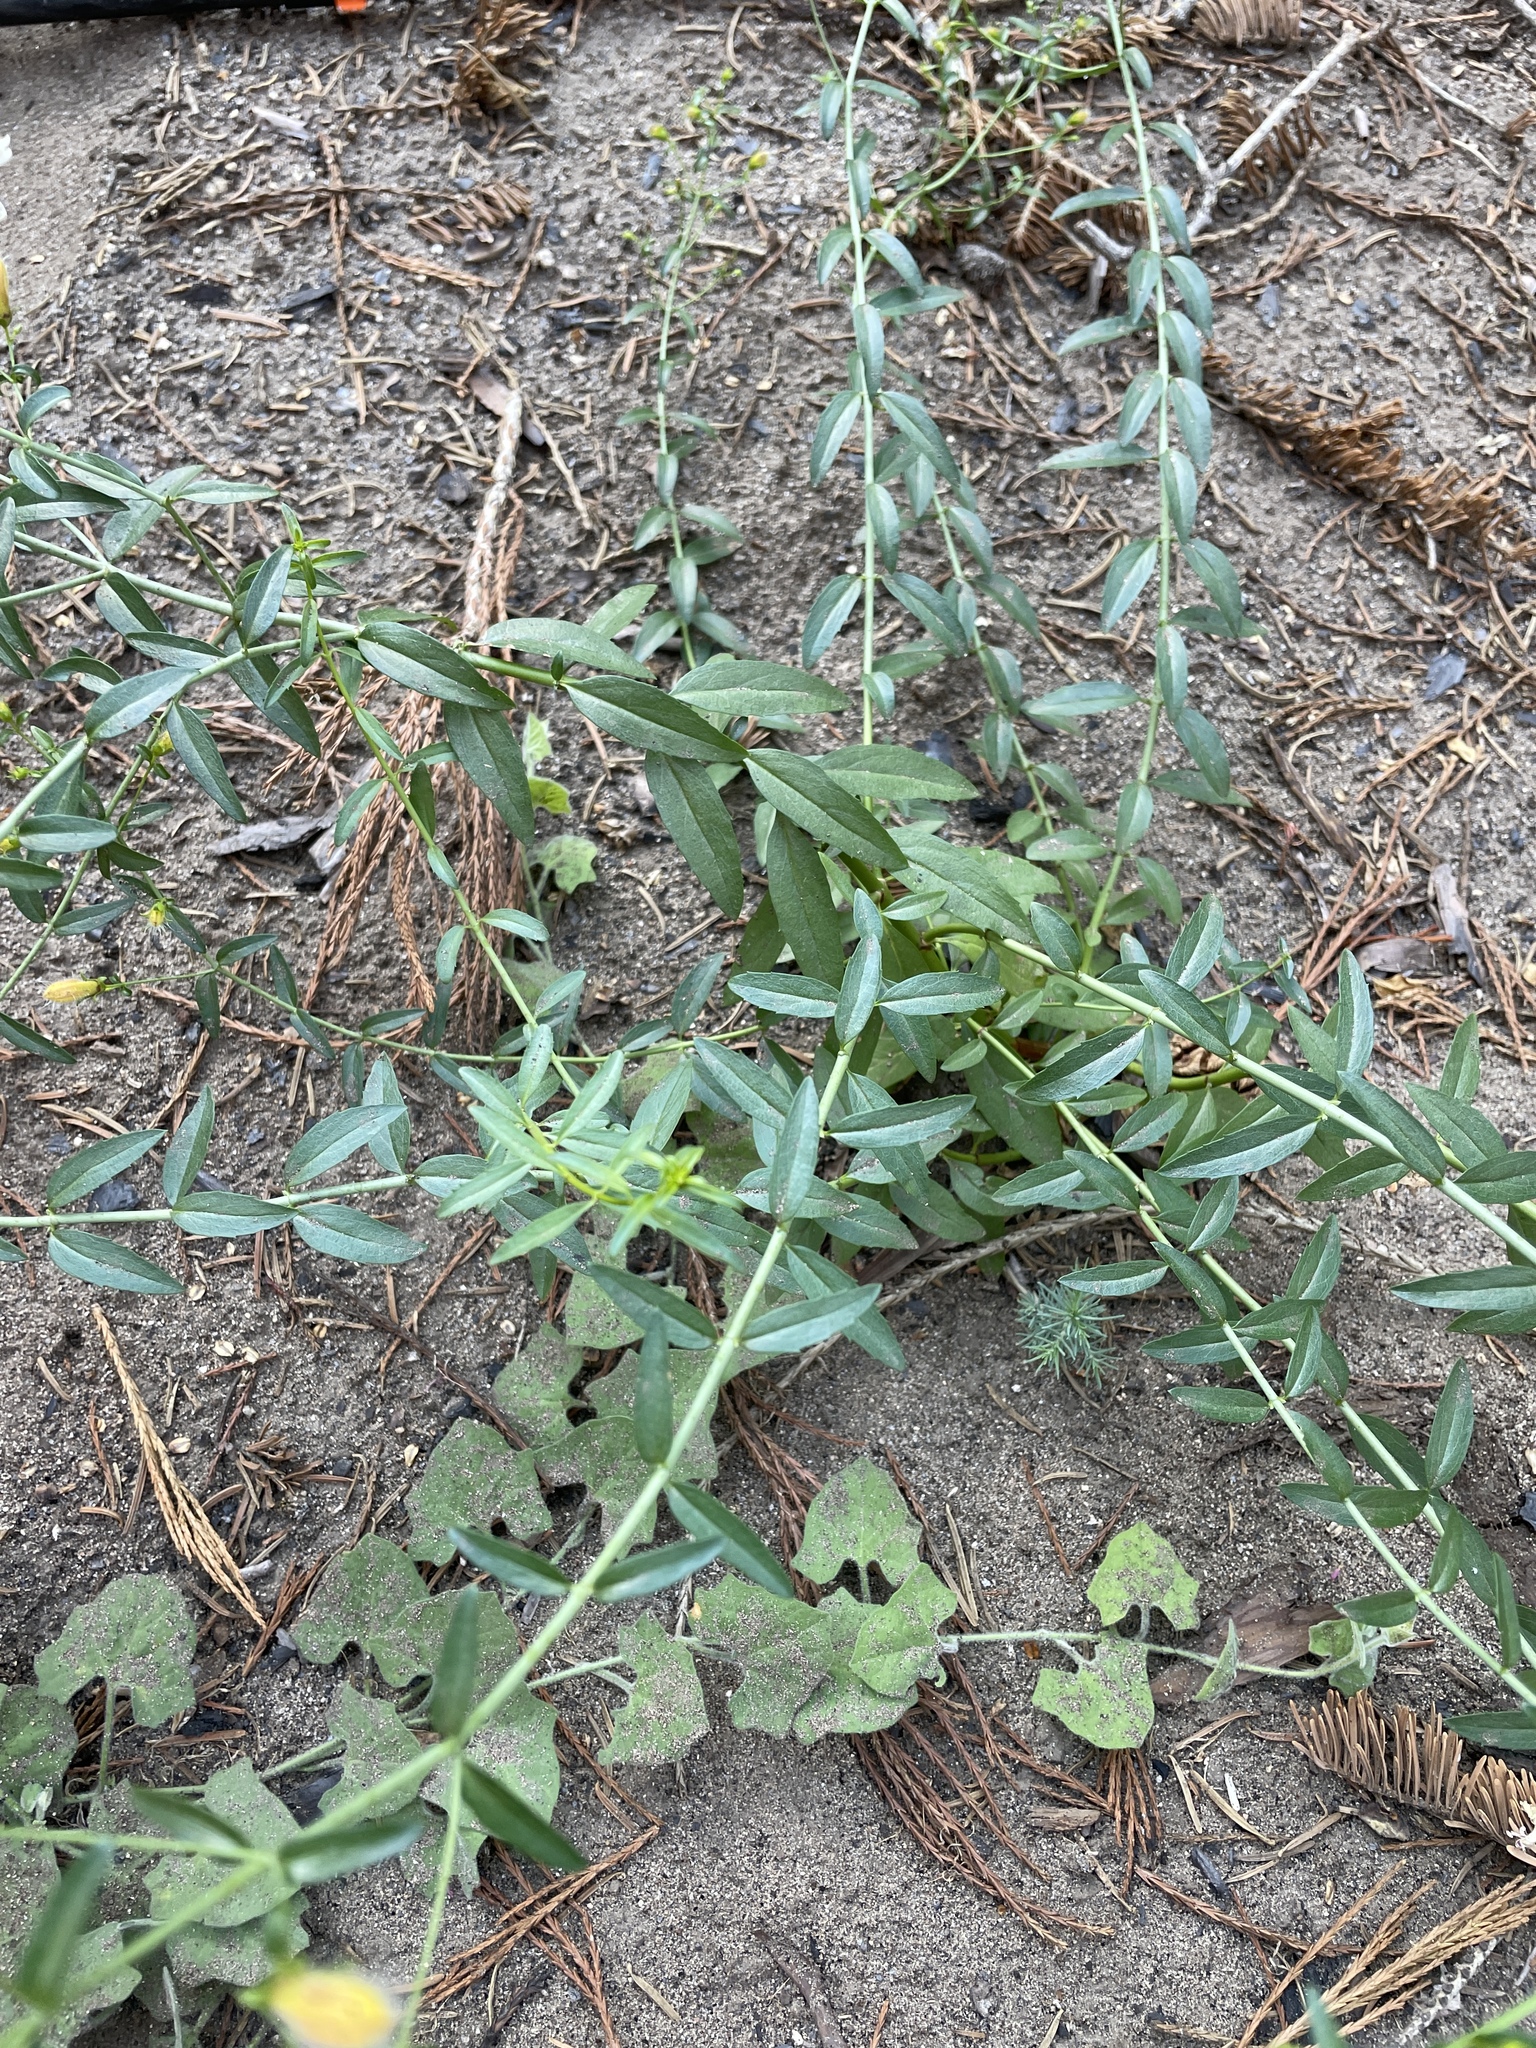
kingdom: Plantae
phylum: Tracheophyta
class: Magnoliopsida
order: Lamiales
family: Plantaginaceae
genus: Keckiella
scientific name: Keckiella breviflora
